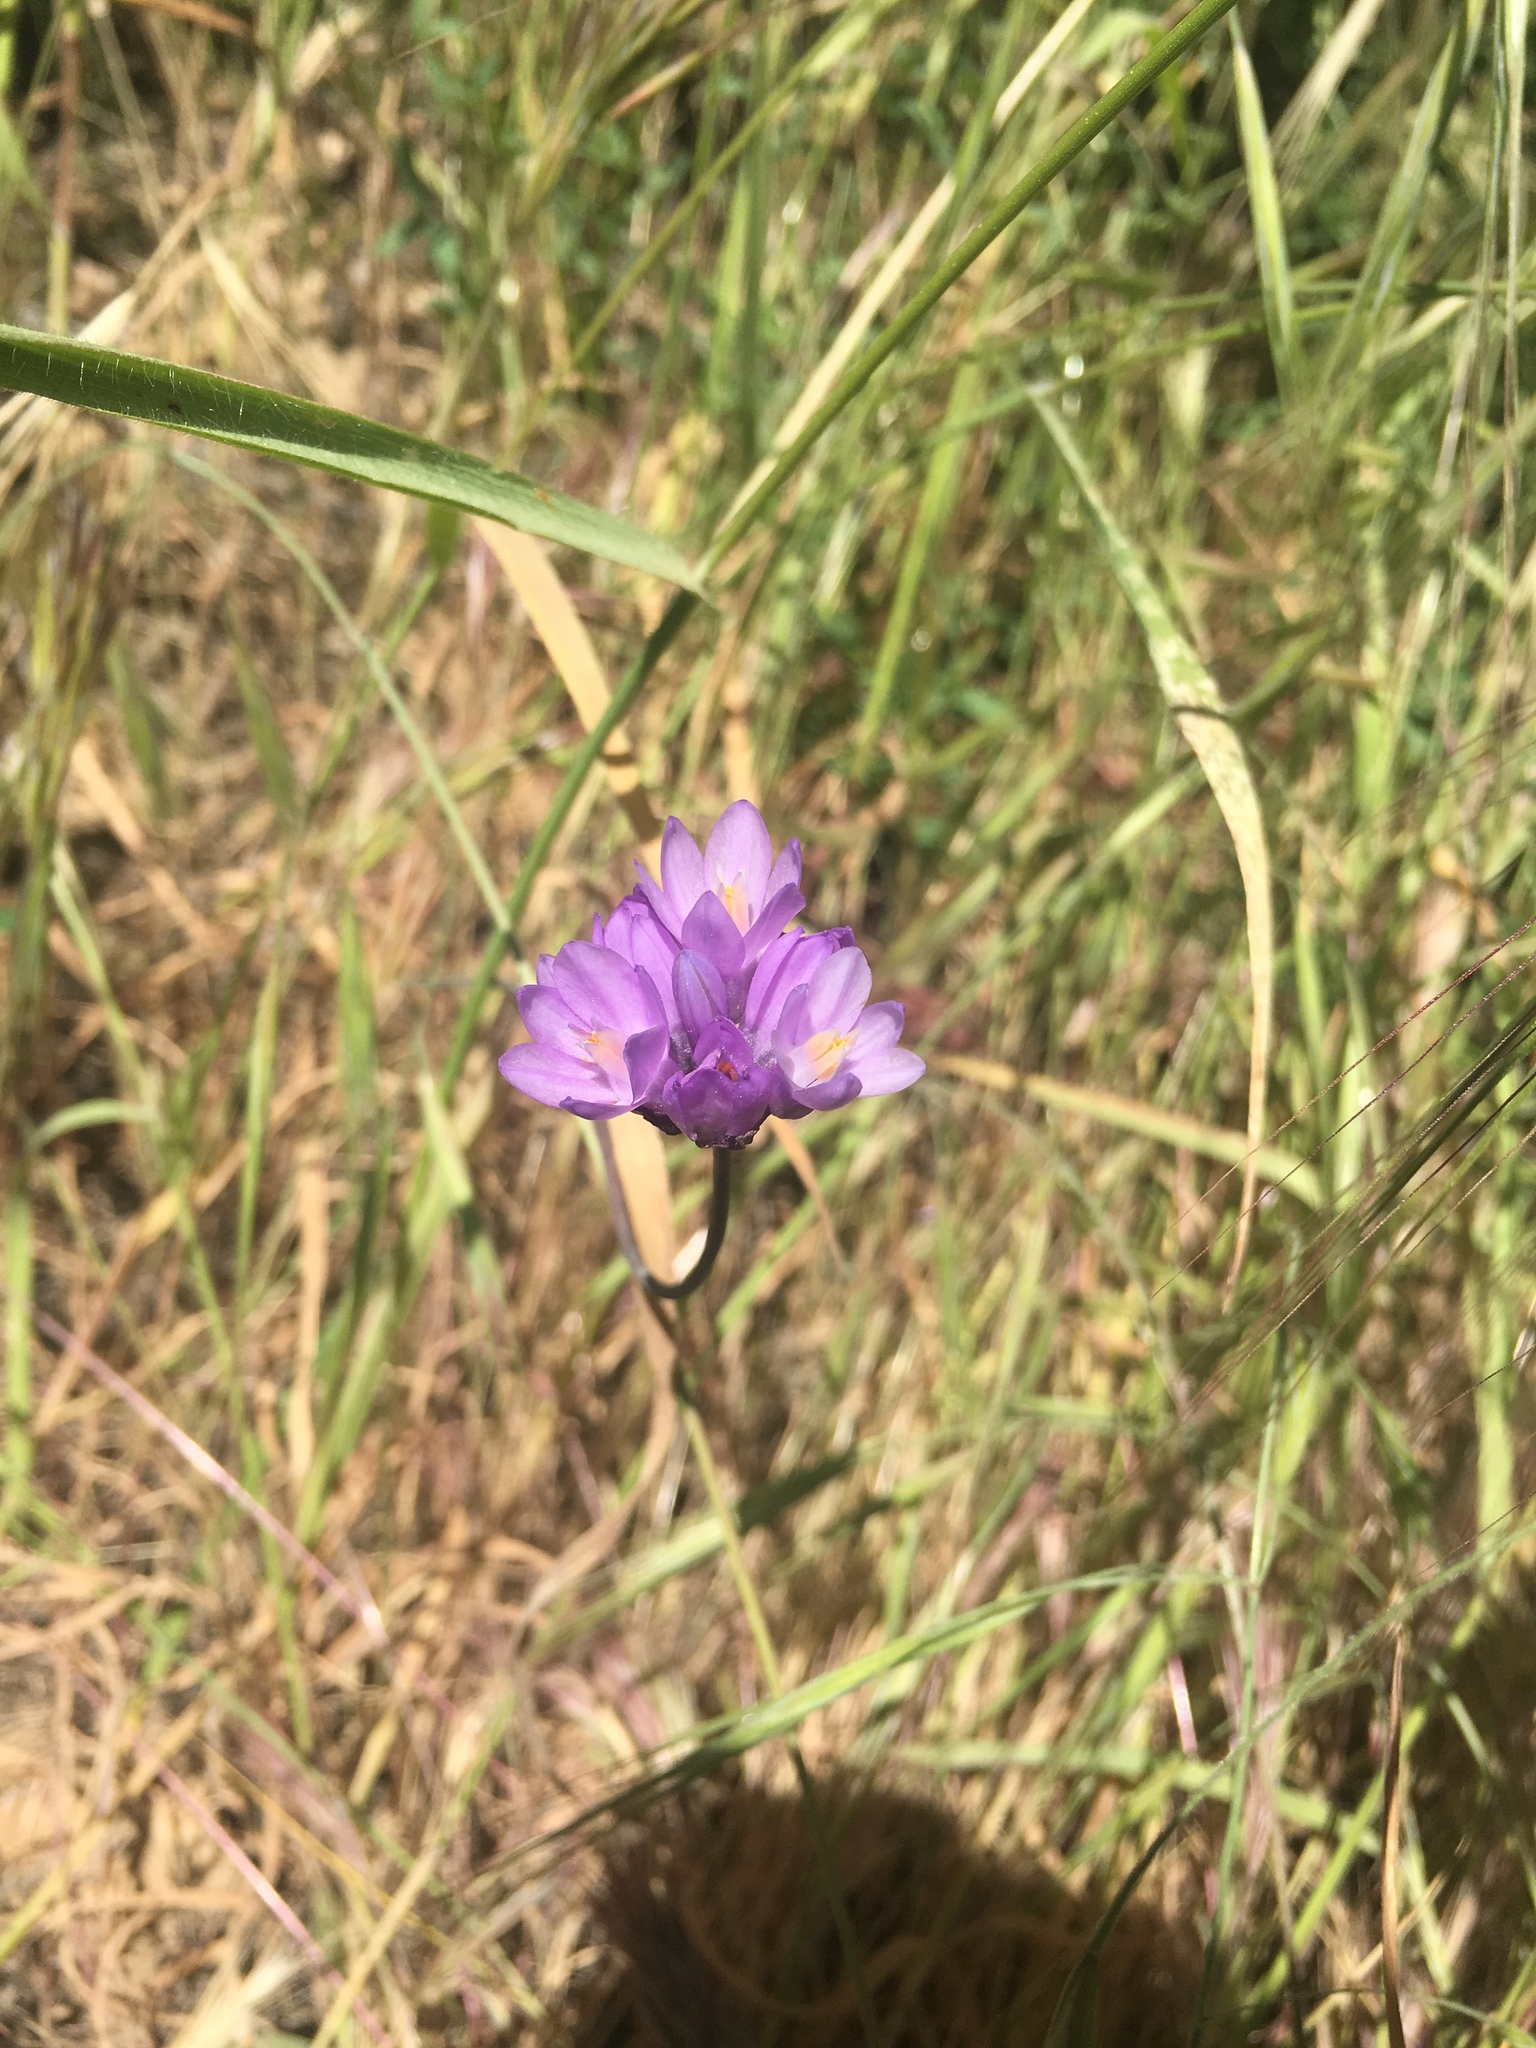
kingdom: Plantae
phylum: Tracheophyta
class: Liliopsida
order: Asparagales
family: Asparagaceae
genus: Dipterostemon
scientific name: Dipterostemon capitatus
